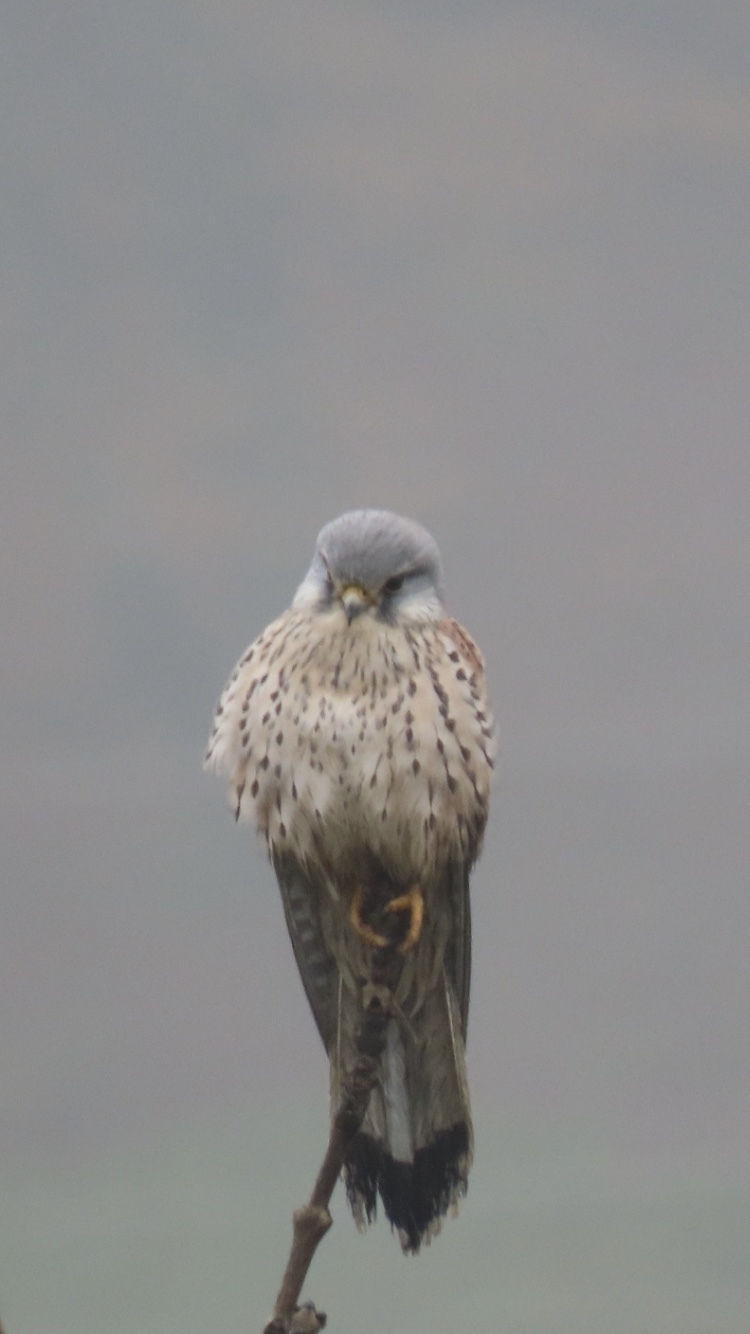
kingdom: Animalia
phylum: Chordata
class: Aves
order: Falconiformes
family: Falconidae
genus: Falco
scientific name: Falco tinnunculus
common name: Common kestrel
